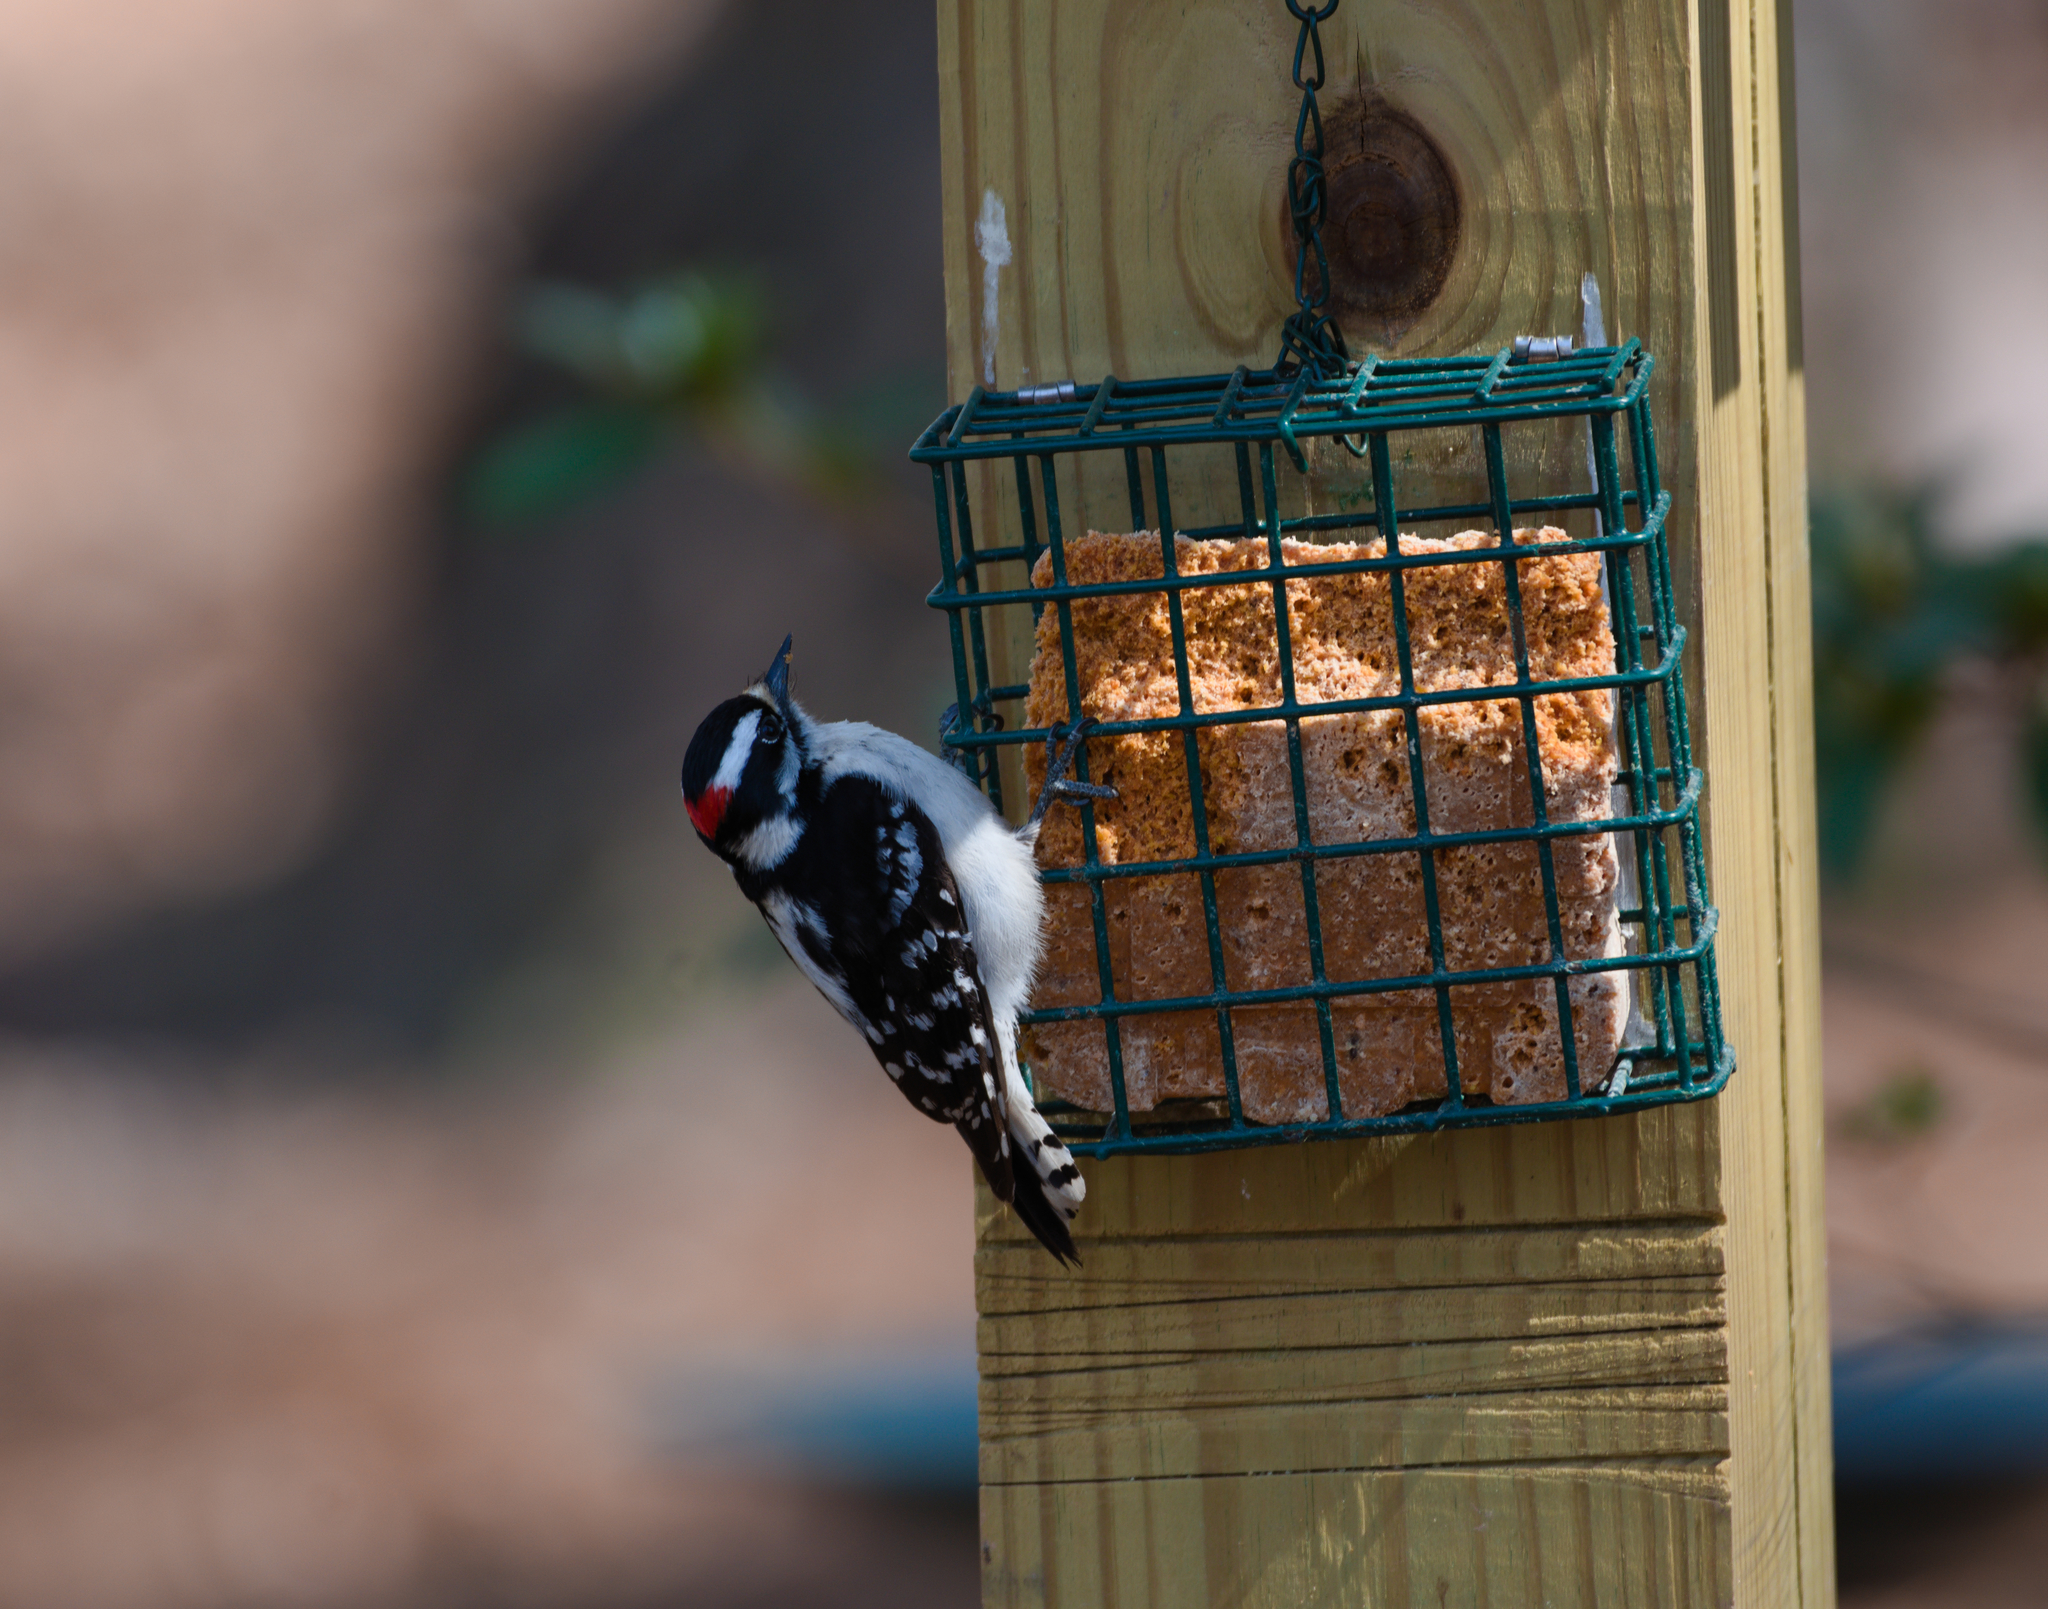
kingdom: Animalia
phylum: Chordata
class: Aves
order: Piciformes
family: Picidae
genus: Dryobates
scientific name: Dryobates pubescens
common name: Downy woodpecker
